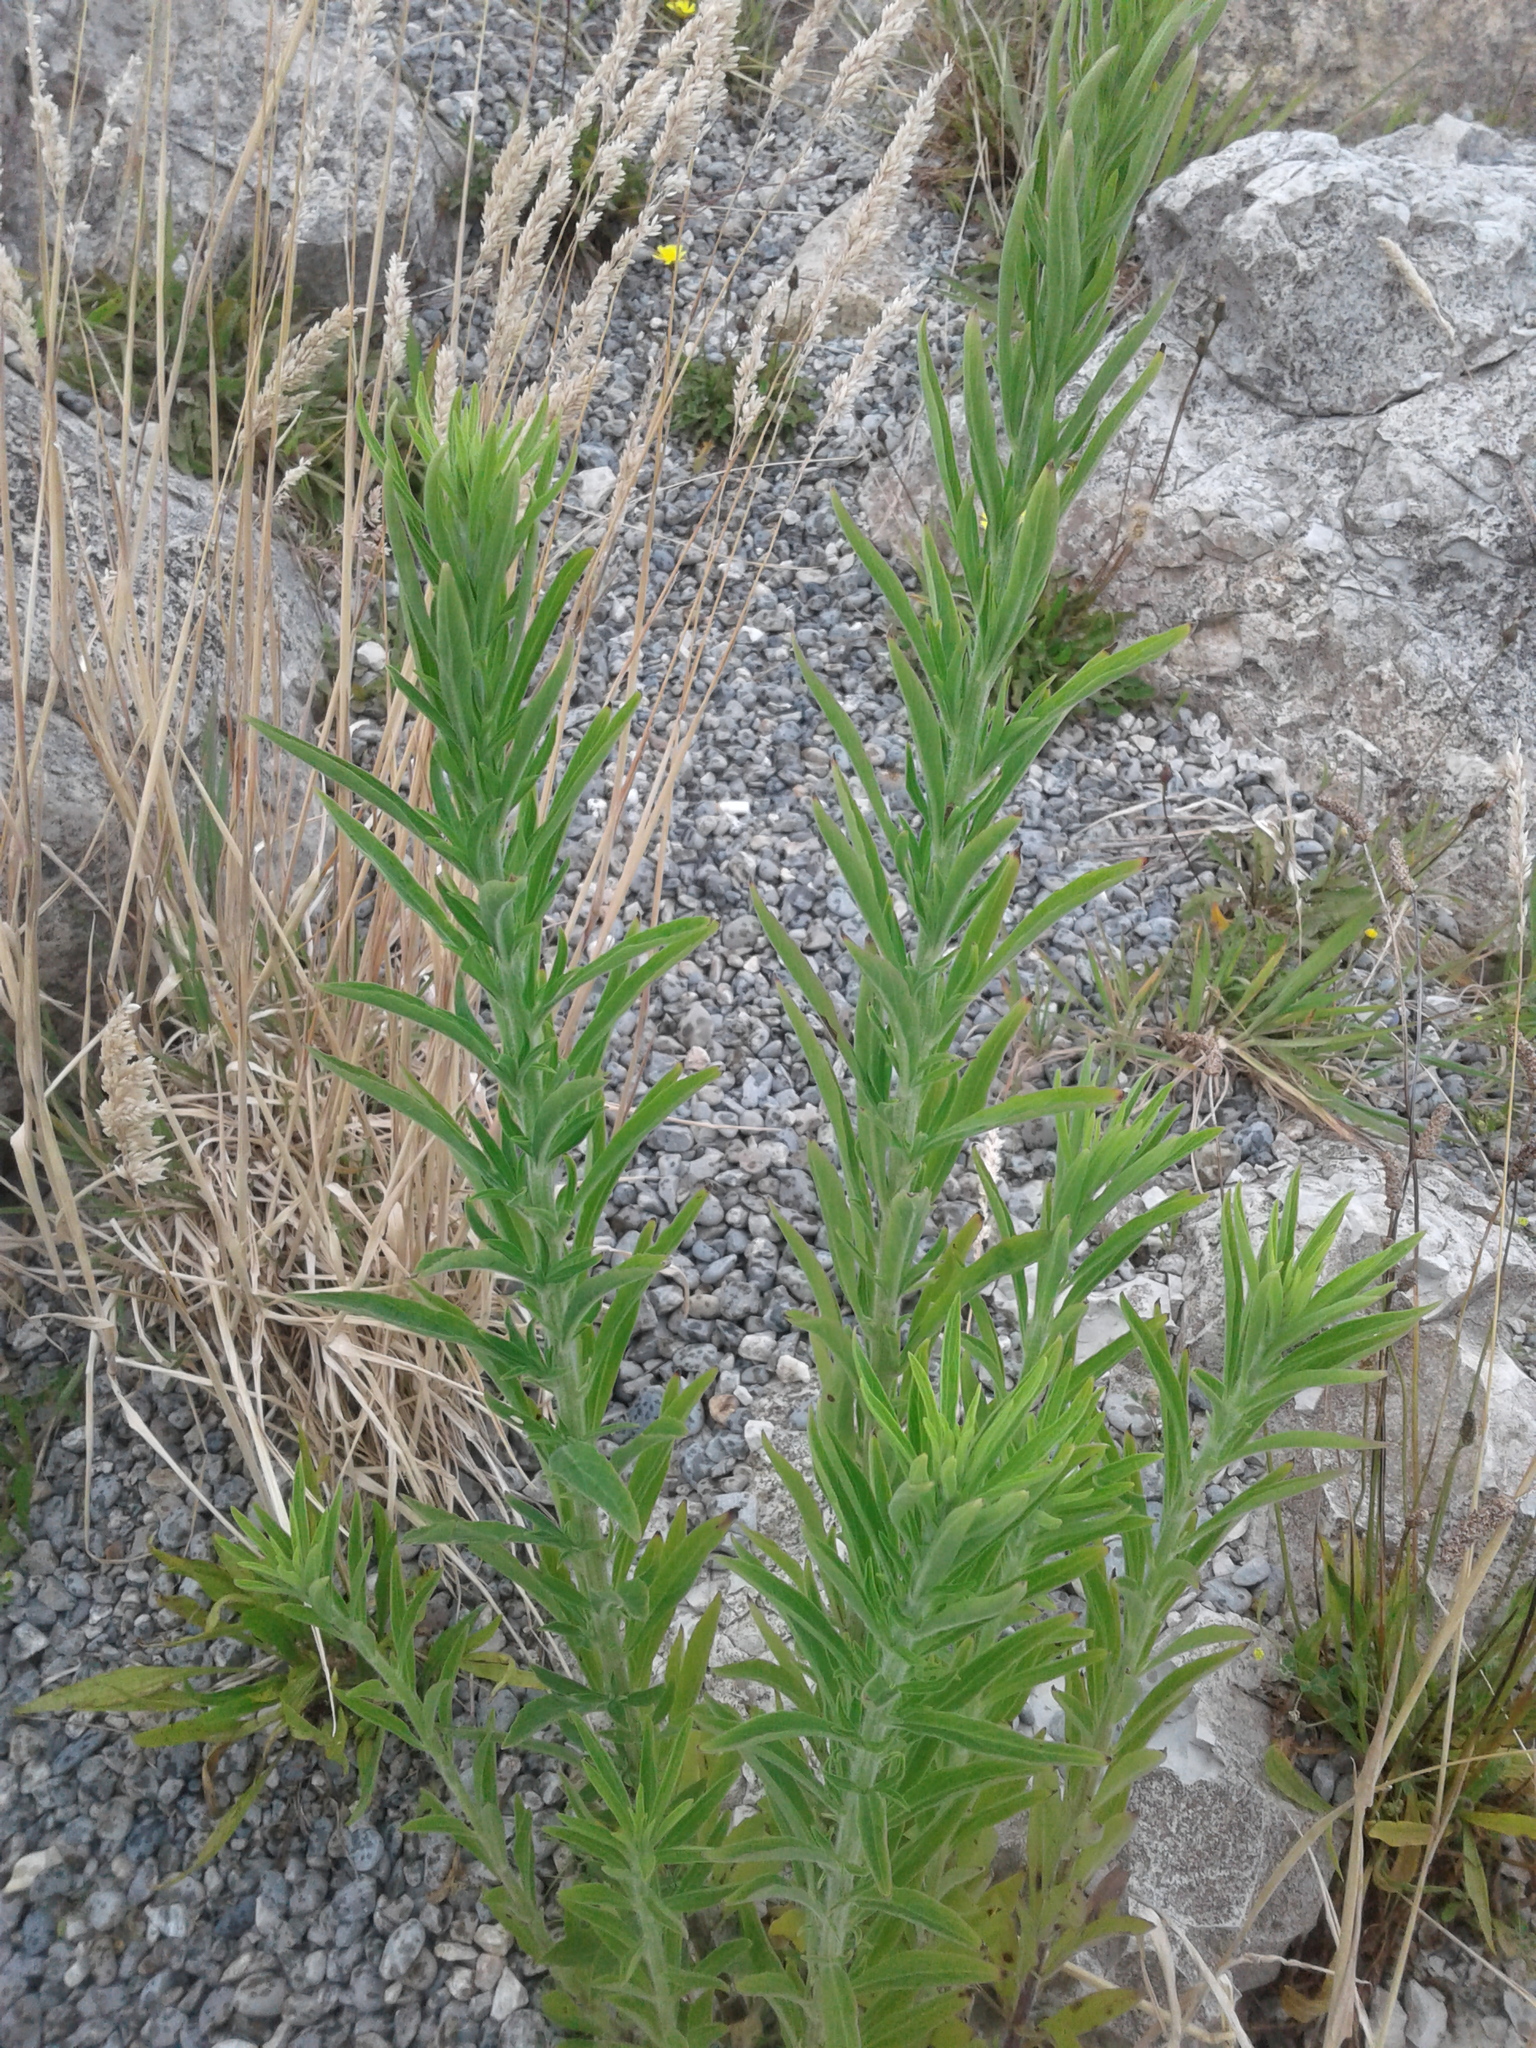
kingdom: Plantae
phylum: Tracheophyta
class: Magnoliopsida
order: Asterales
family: Asteraceae
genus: Erigeron
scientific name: Erigeron sumatrensis
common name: Daisy
